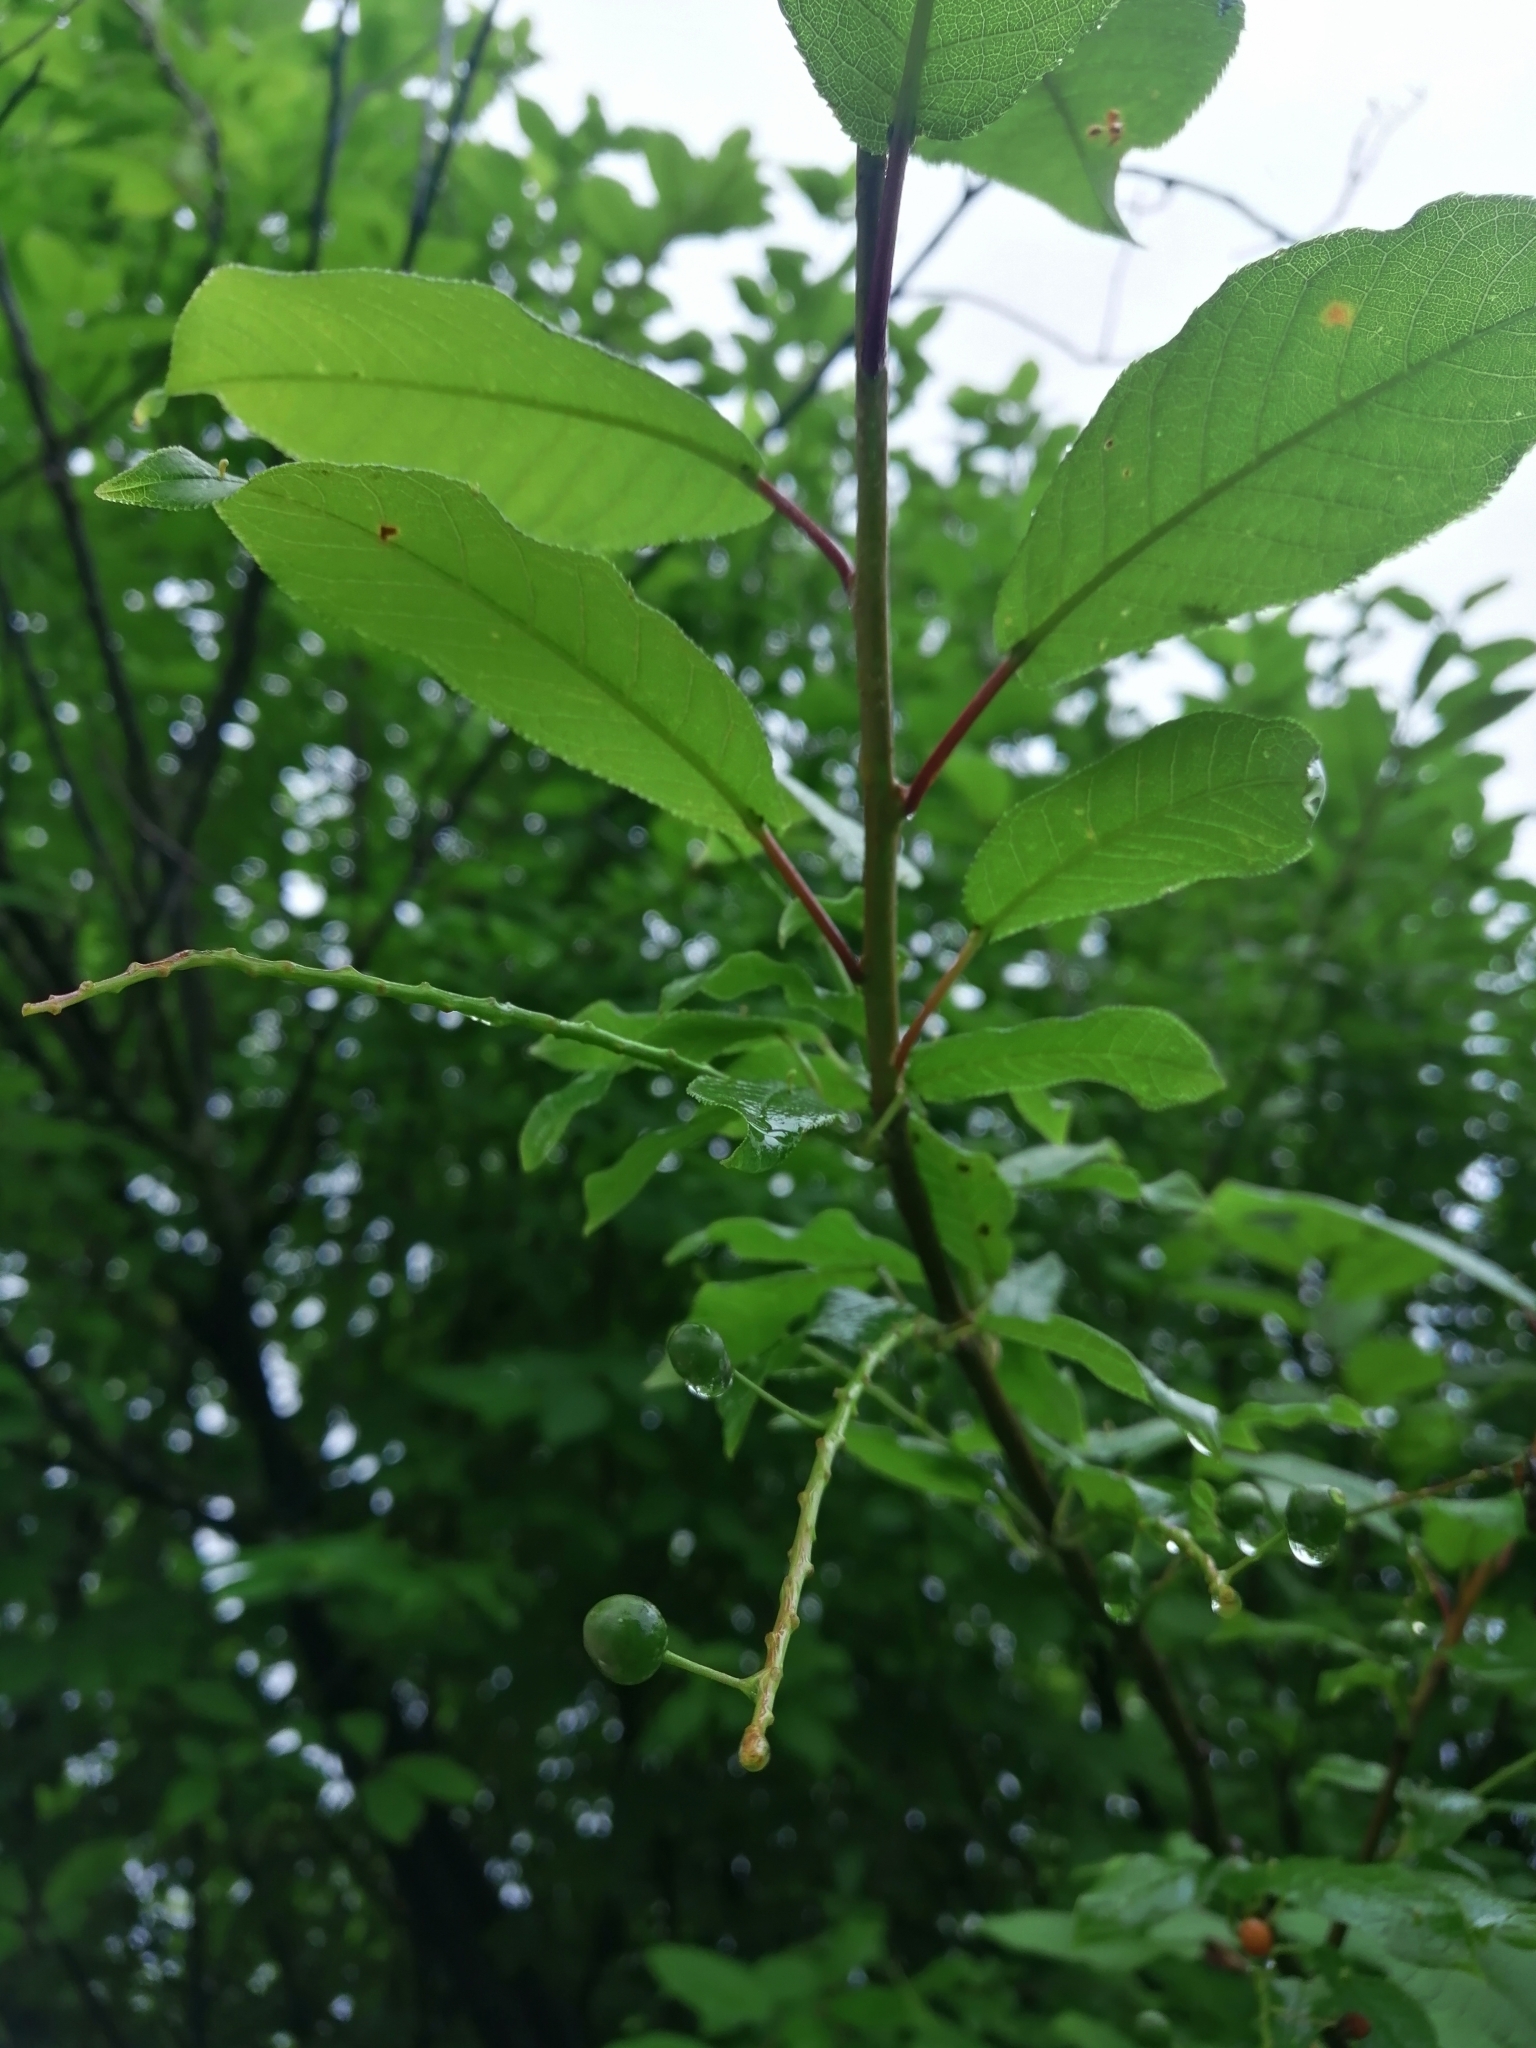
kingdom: Plantae
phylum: Tracheophyta
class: Magnoliopsida
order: Rosales
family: Rosaceae
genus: Prunus
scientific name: Prunus padus
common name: Bird cherry
